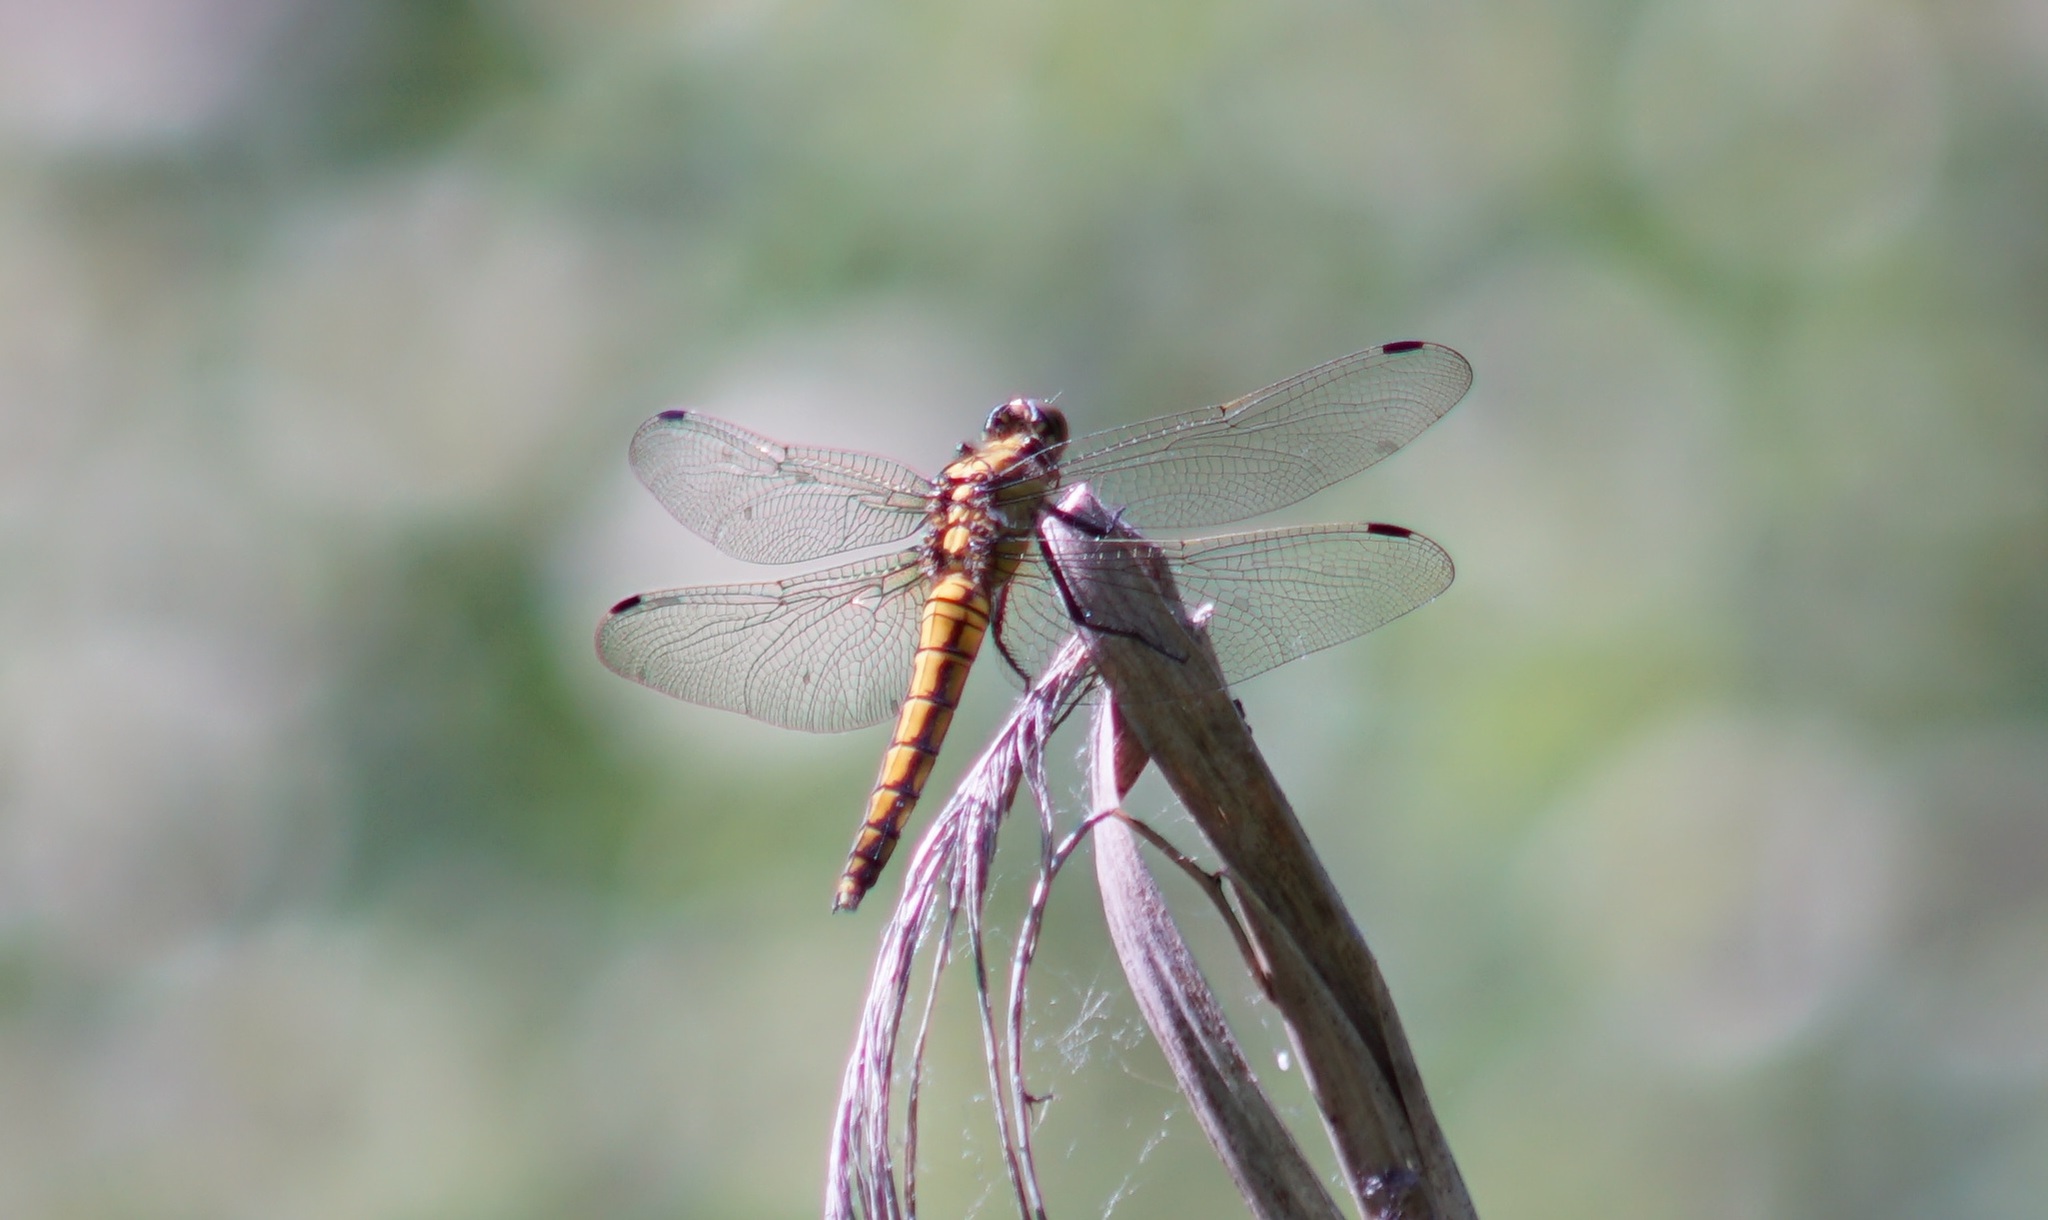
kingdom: Animalia
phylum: Arthropoda
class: Insecta
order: Odonata
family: Libellulidae
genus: Orthetrum
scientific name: Orthetrum cancellatum
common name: Black-tailed skimmer
